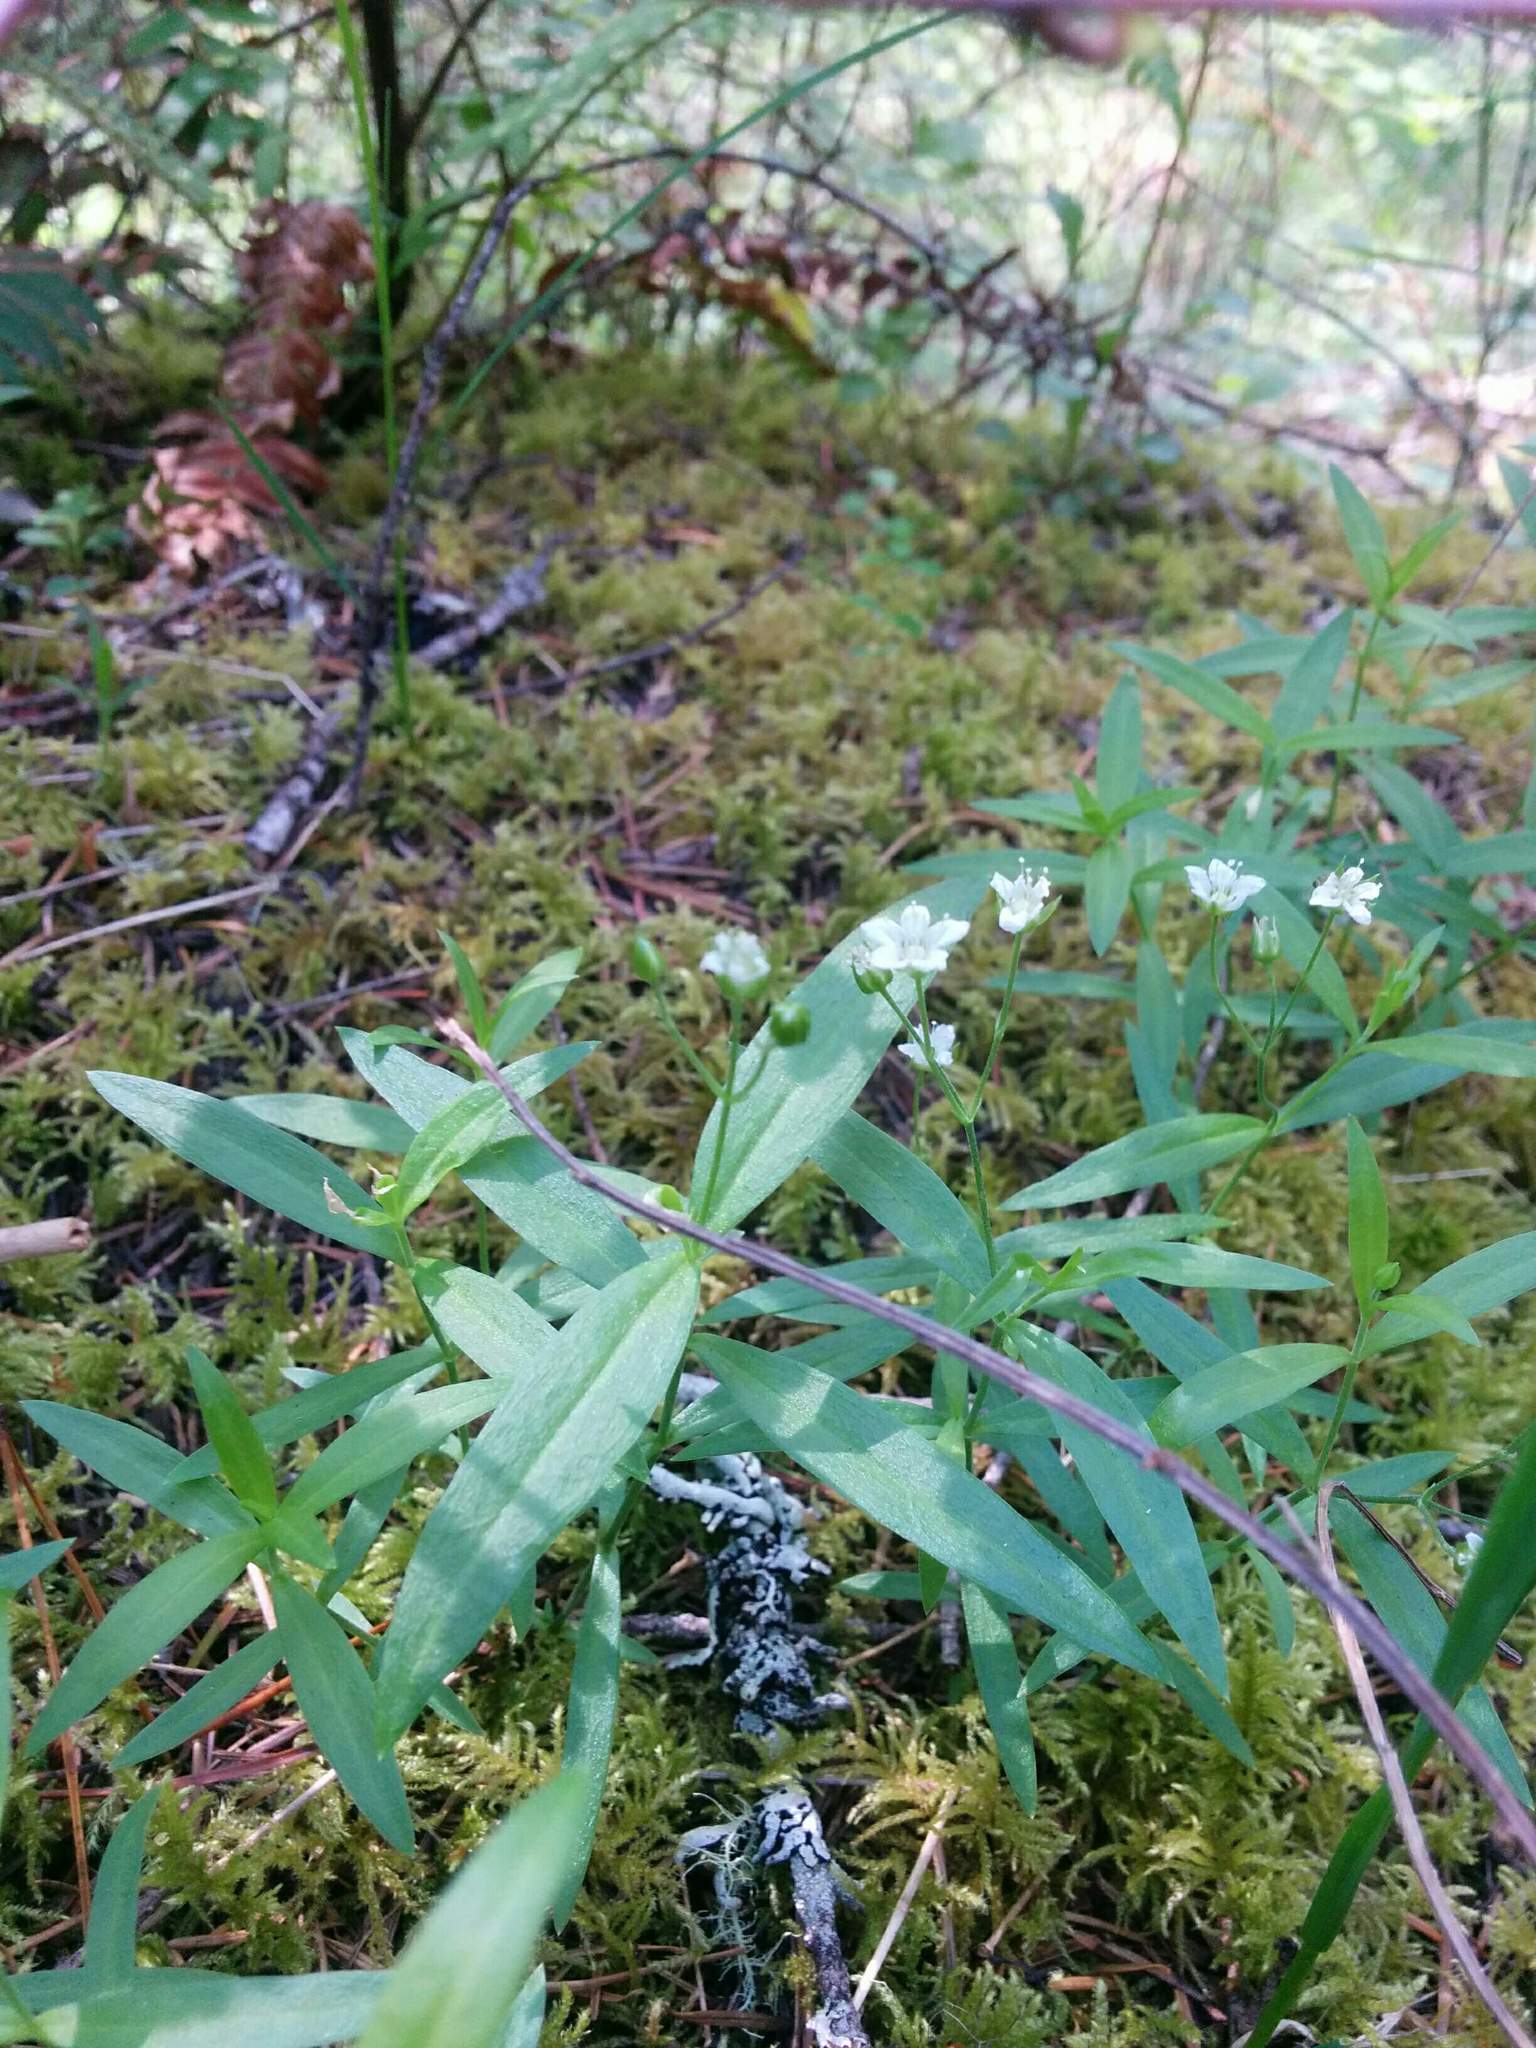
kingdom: Plantae
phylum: Tracheophyta
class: Magnoliopsida
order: Caryophyllales
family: Caryophyllaceae
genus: Moehringia
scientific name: Moehringia macrophylla
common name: Big-leaf sandwort
